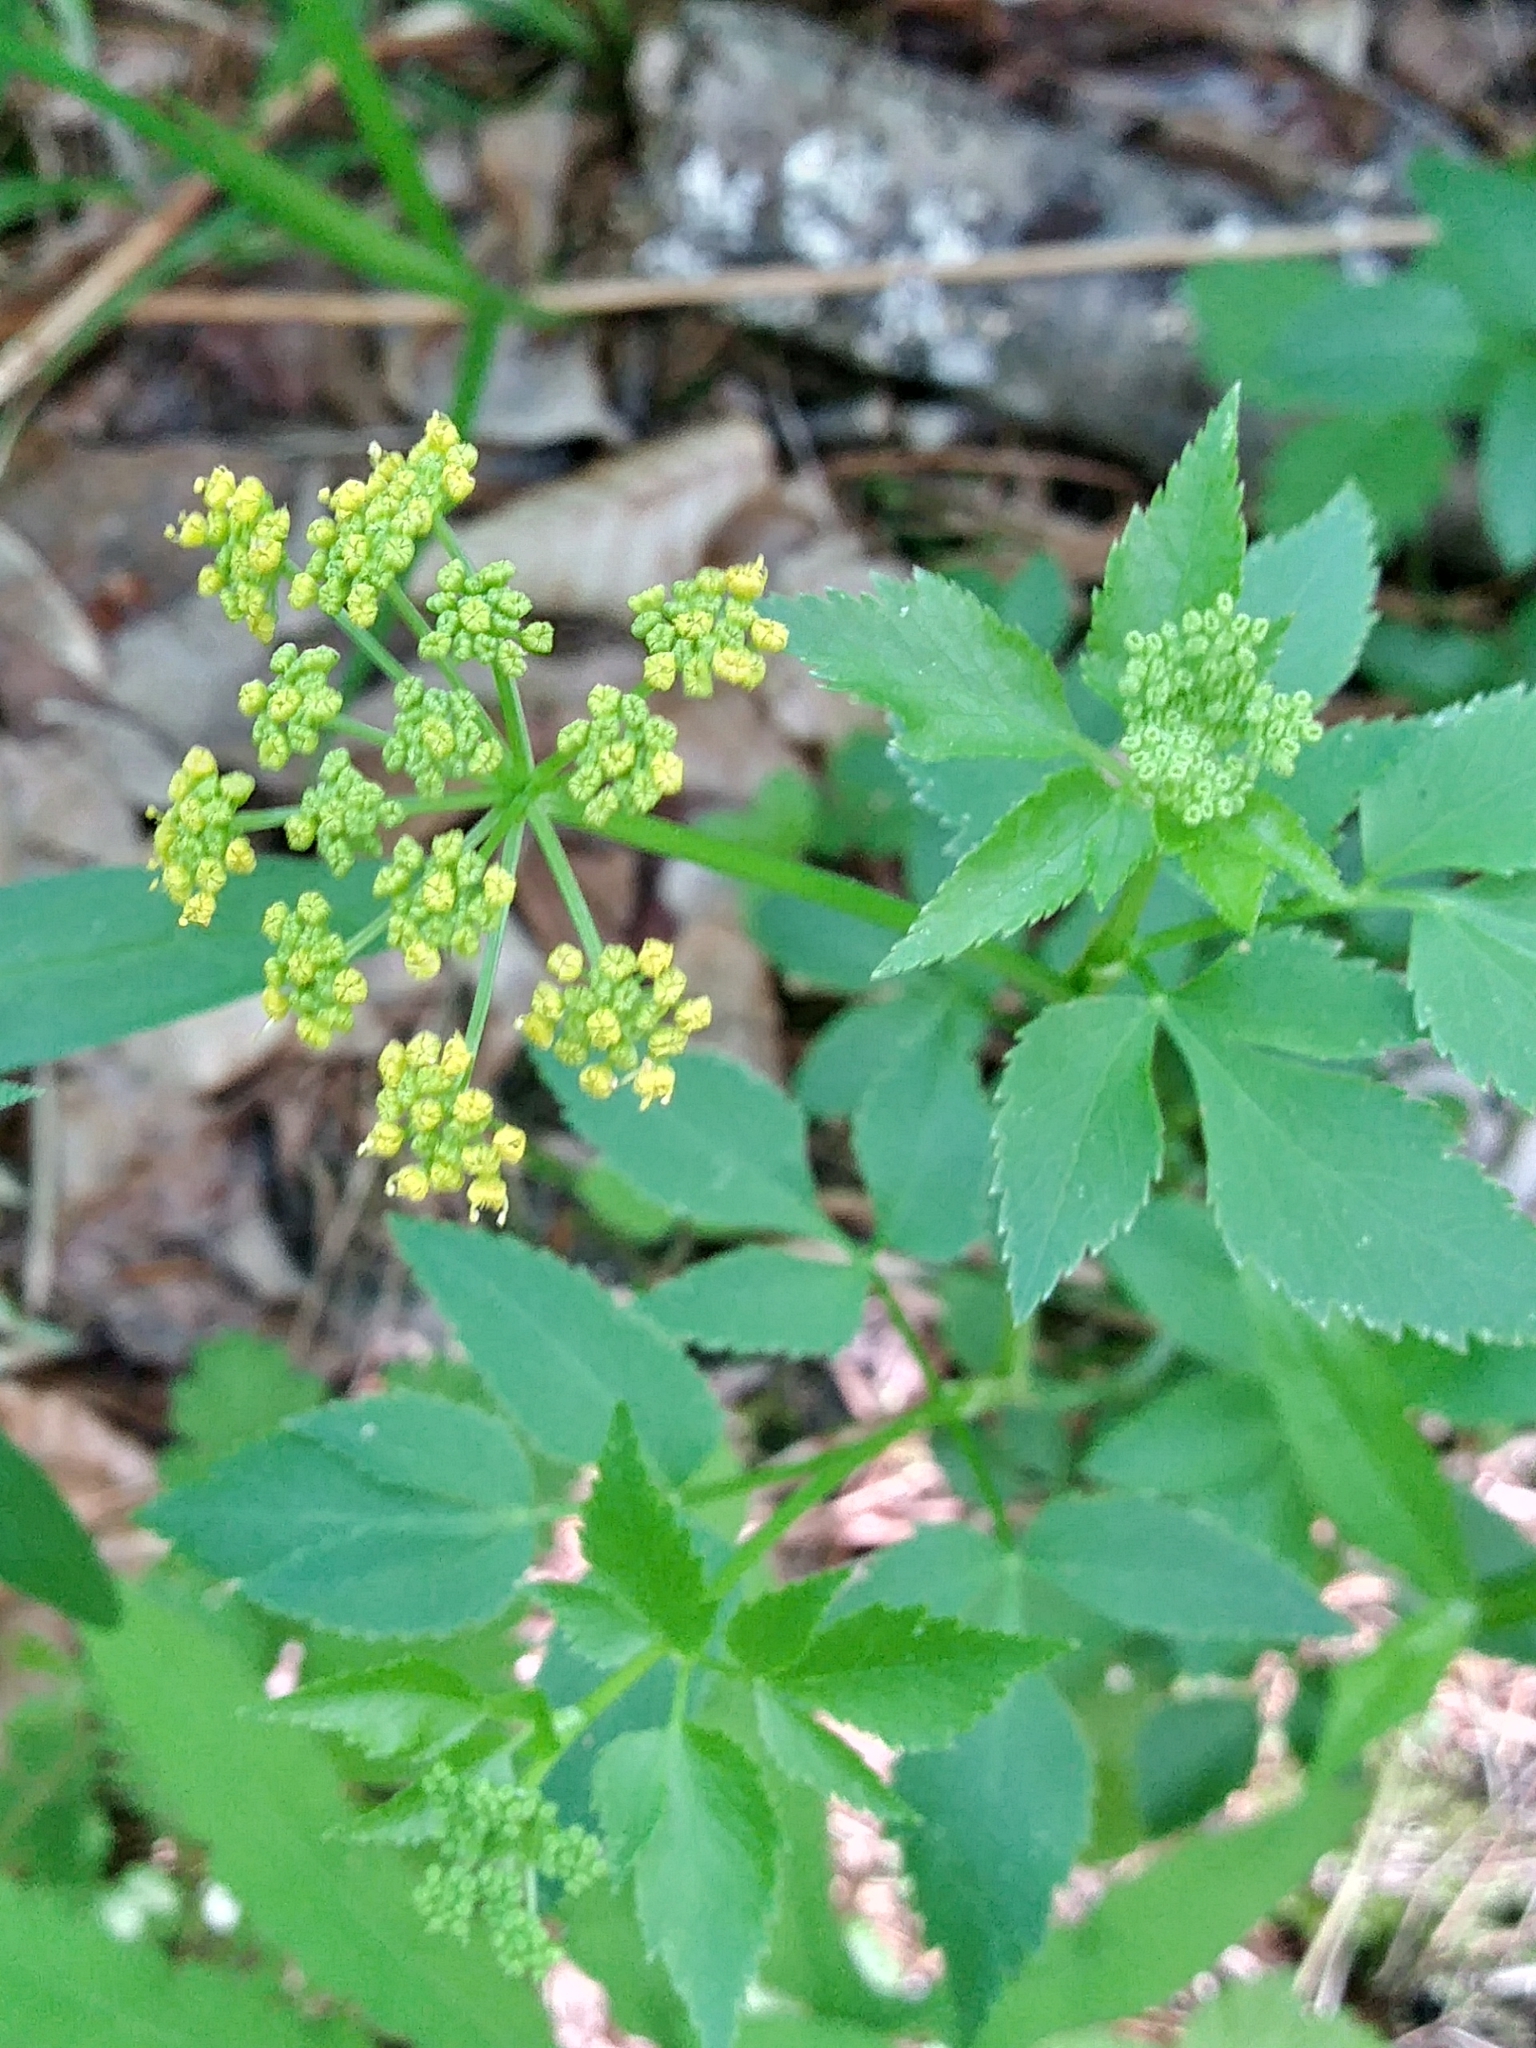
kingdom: Plantae
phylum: Tracheophyta
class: Magnoliopsida
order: Apiales
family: Apiaceae
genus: Zizia
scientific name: Zizia aurea
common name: Golden alexanders
